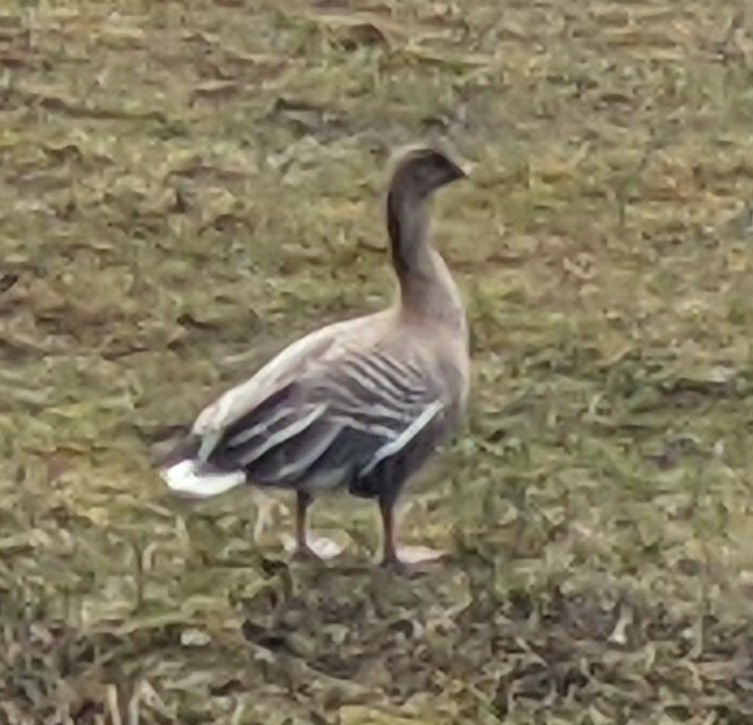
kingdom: Animalia
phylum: Chordata
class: Aves
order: Anseriformes
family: Anatidae
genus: Anser
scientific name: Anser brachyrhynchus
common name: Pink-footed goose
